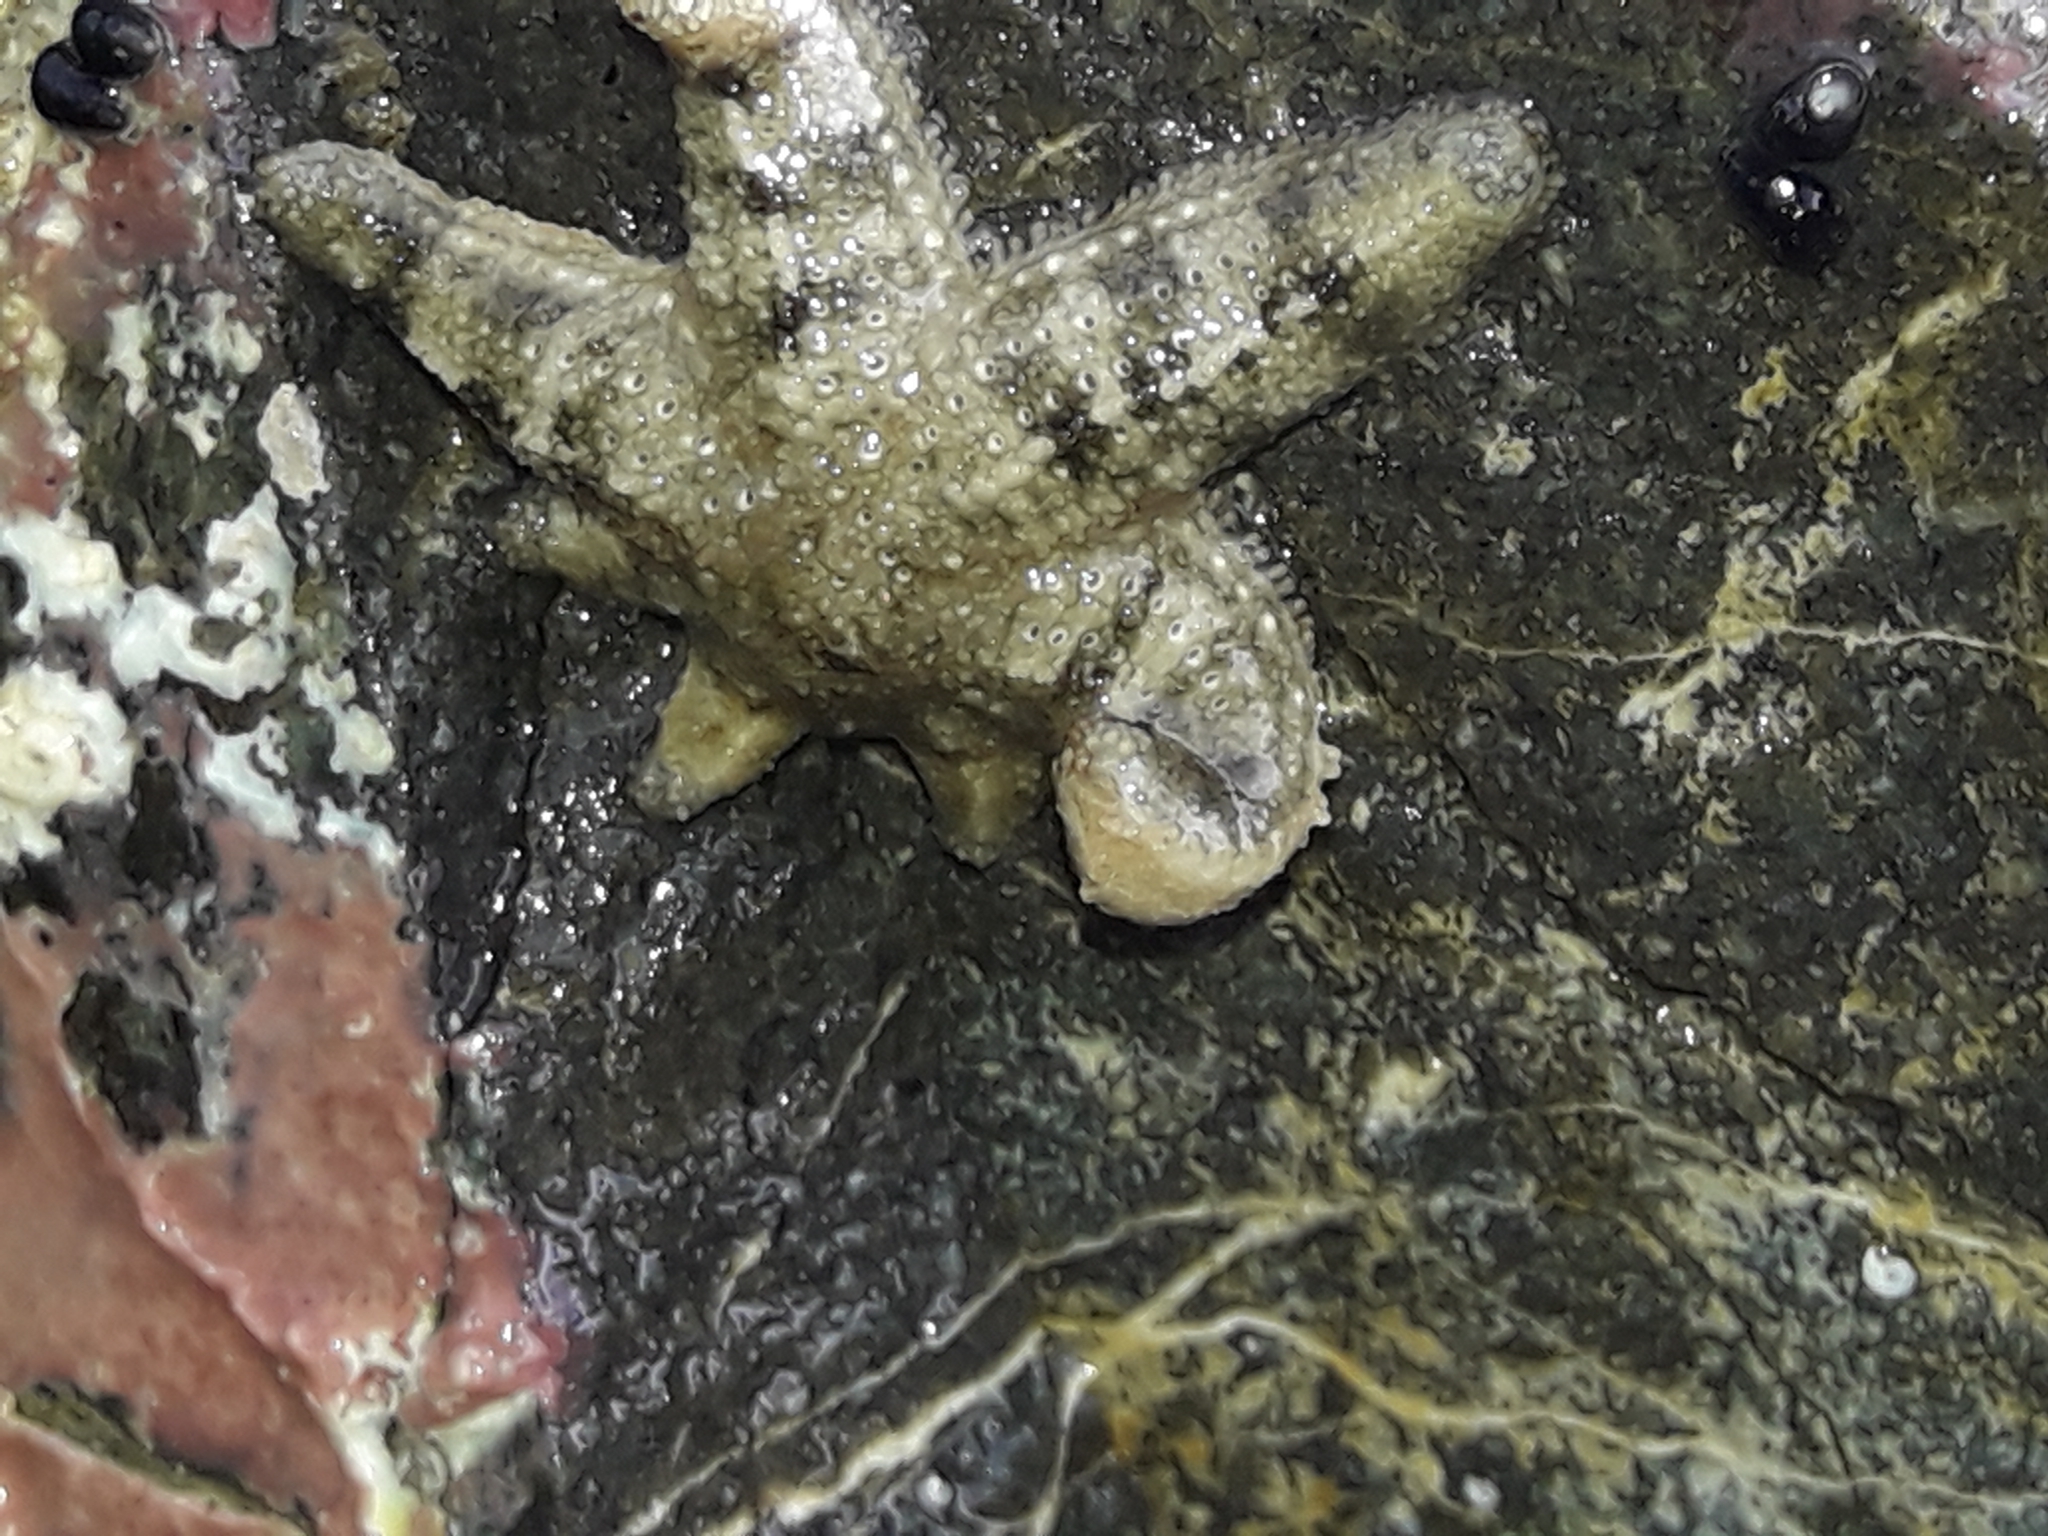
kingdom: Animalia
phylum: Echinodermata
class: Asteroidea
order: Forcipulatida
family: Stichasteridae
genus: Allostichaster
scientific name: Allostichaster polyplax
